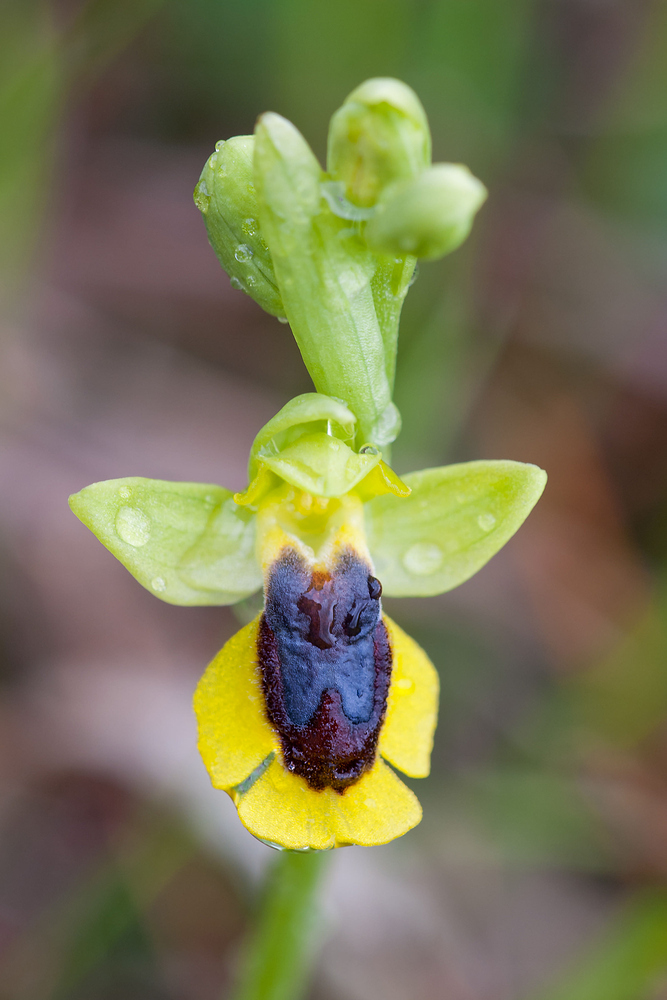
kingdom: Plantae
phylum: Tracheophyta
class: Liliopsida
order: Asparagales
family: Orchidaceae
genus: Ophrys
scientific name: Ophrys lutea
